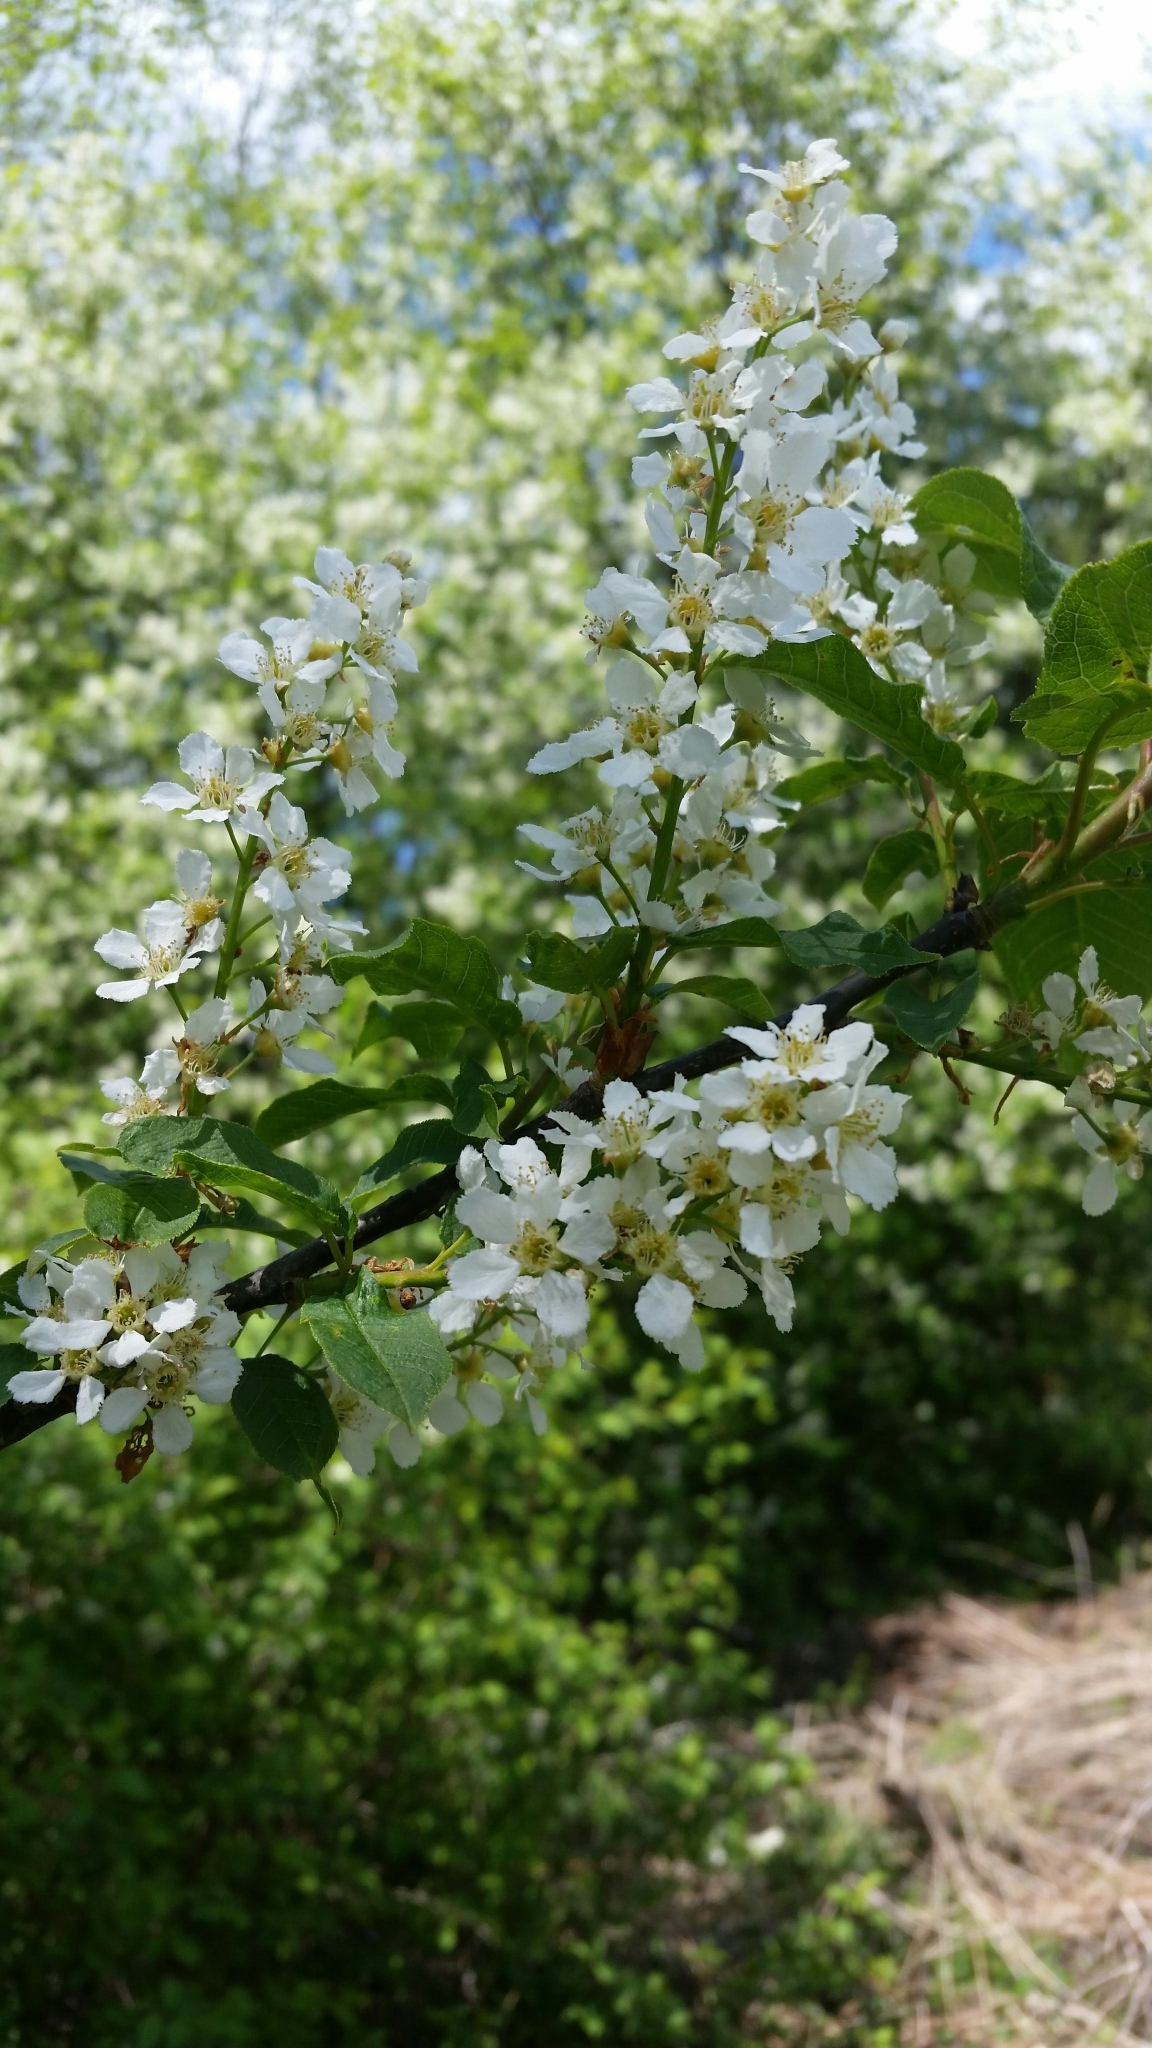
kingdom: Plantae
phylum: Tracheophyta
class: Magnoliopsida
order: Rosales
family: Rosaceae
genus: Prunus
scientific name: Prunus padus
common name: Bird cherry
